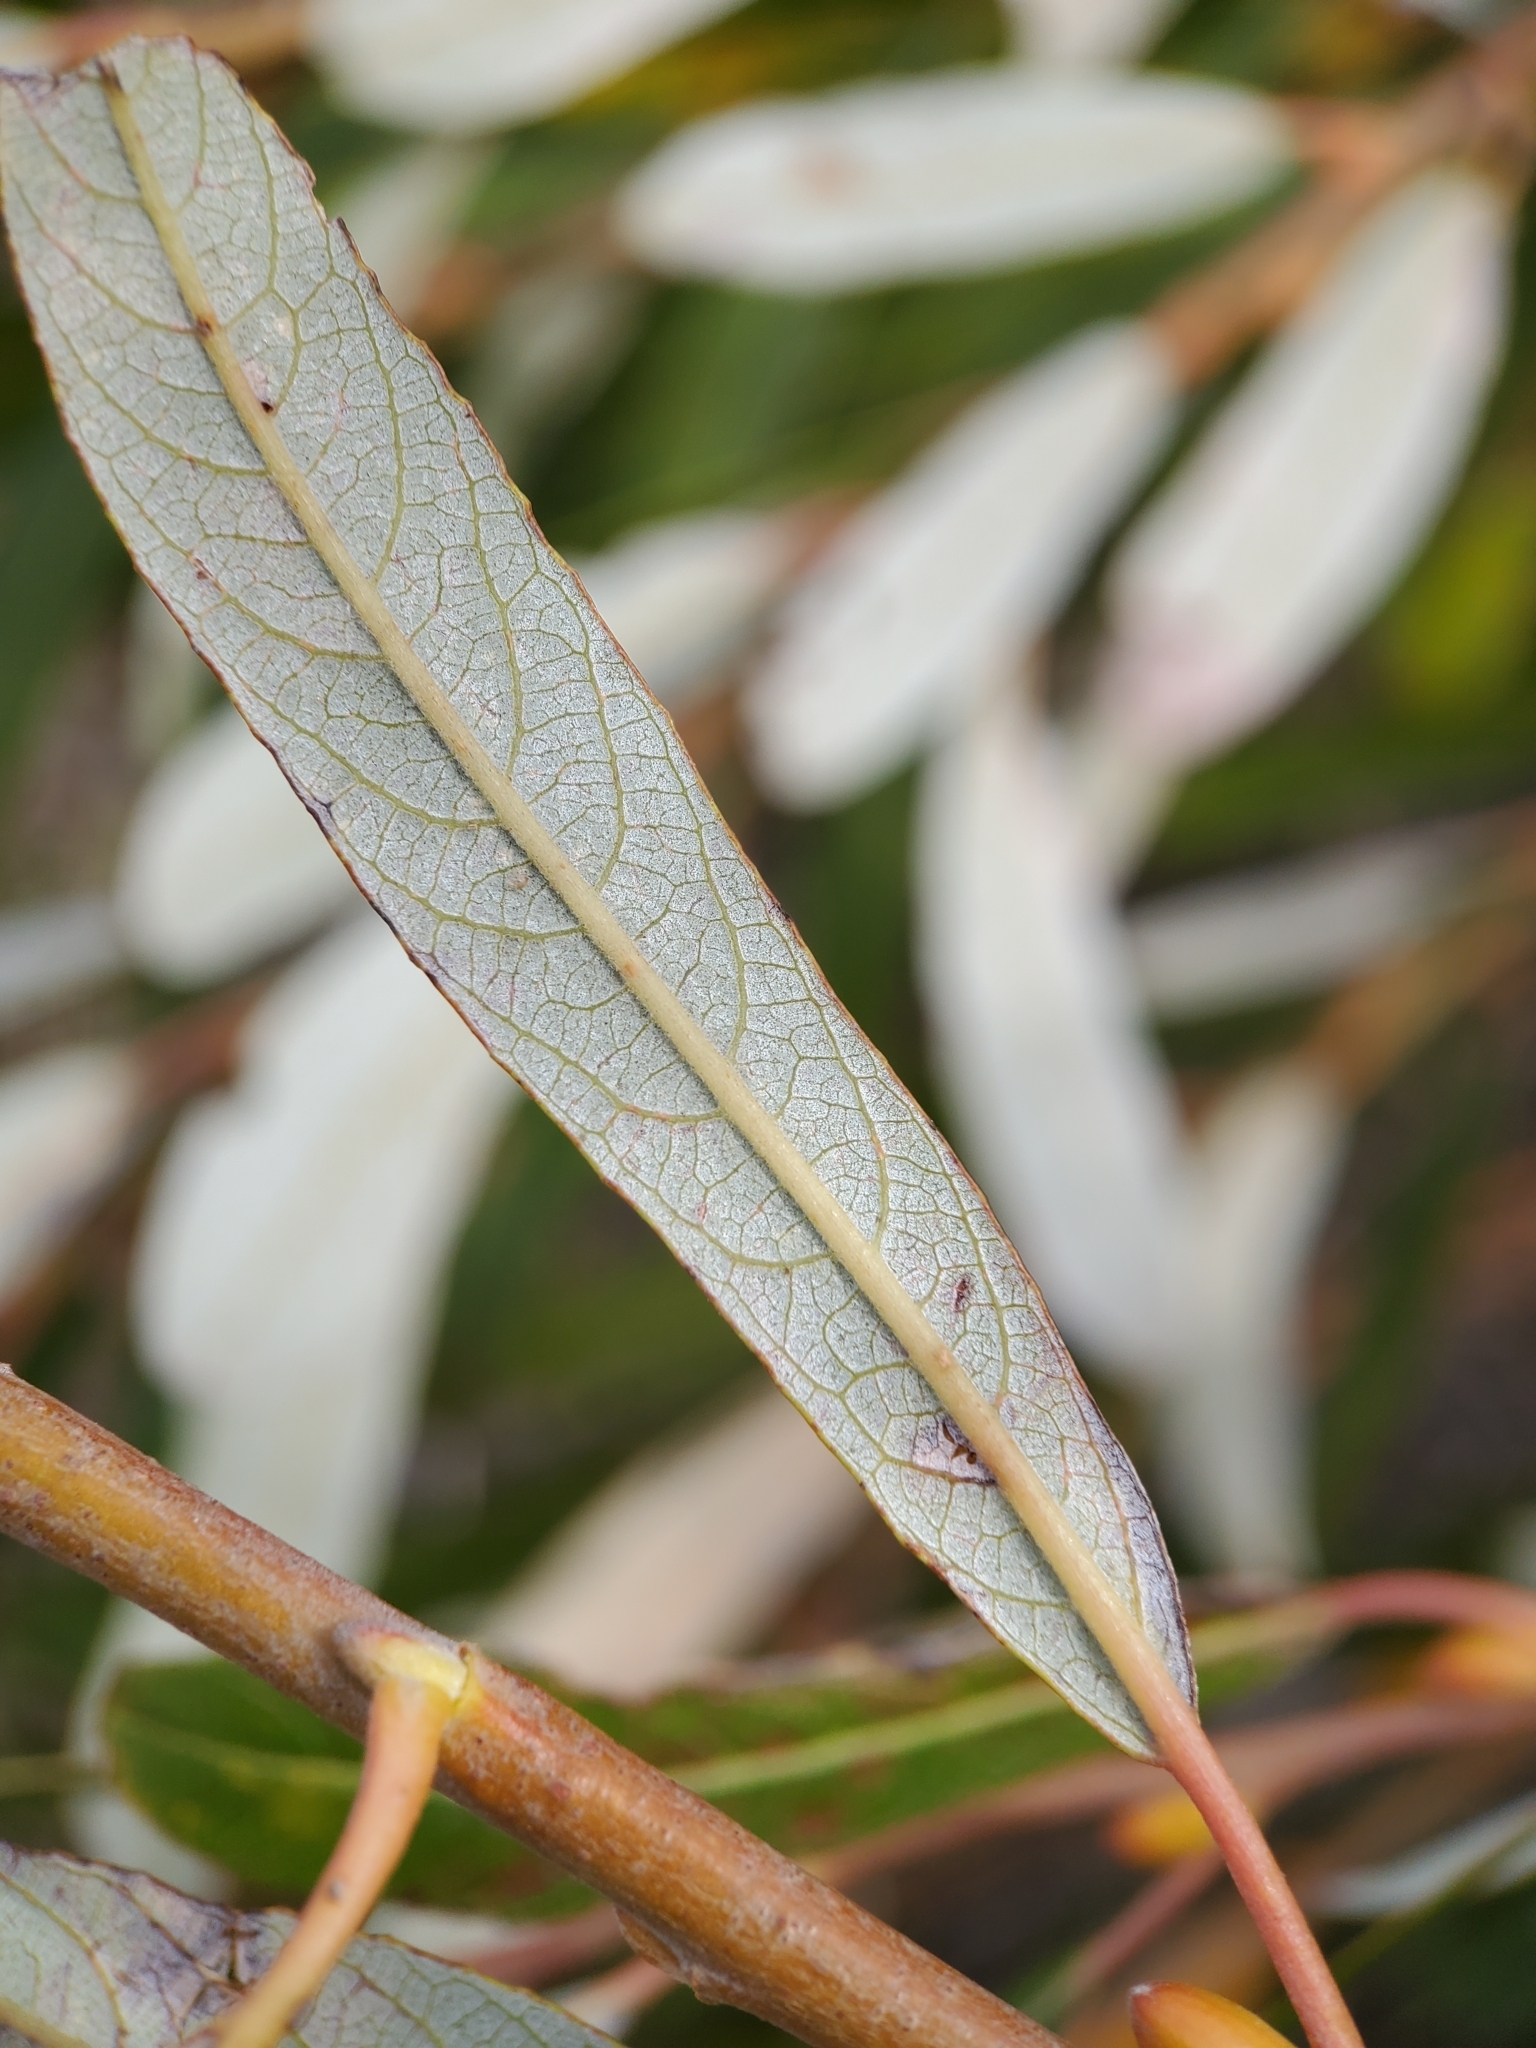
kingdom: Plantae
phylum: Tracheophyta
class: Magnoliopsida
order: Malpighiales
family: Salicaceae
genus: Salix
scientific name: Salix lasiolepis
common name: Arroyo willow
